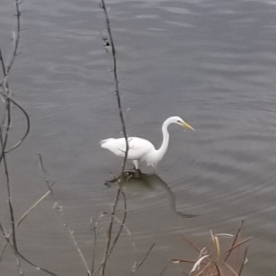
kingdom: Animalia
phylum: Chordata
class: Aves
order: Pelecaniformes
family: Ardeidae
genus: Ardea
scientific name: Ardea alba
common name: Great egret
